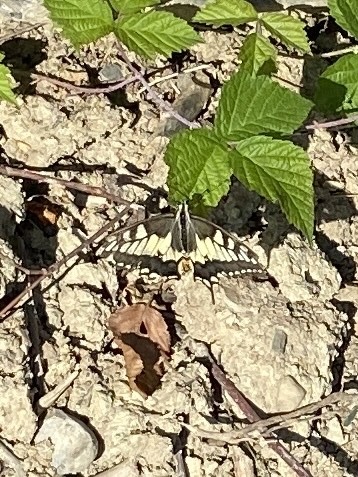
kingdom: Animalia
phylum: Arthropoda
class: Insecta
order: Lepidoptera
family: Papilionidae
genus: Papilio
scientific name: Papilio machaon
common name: Swallowtail
